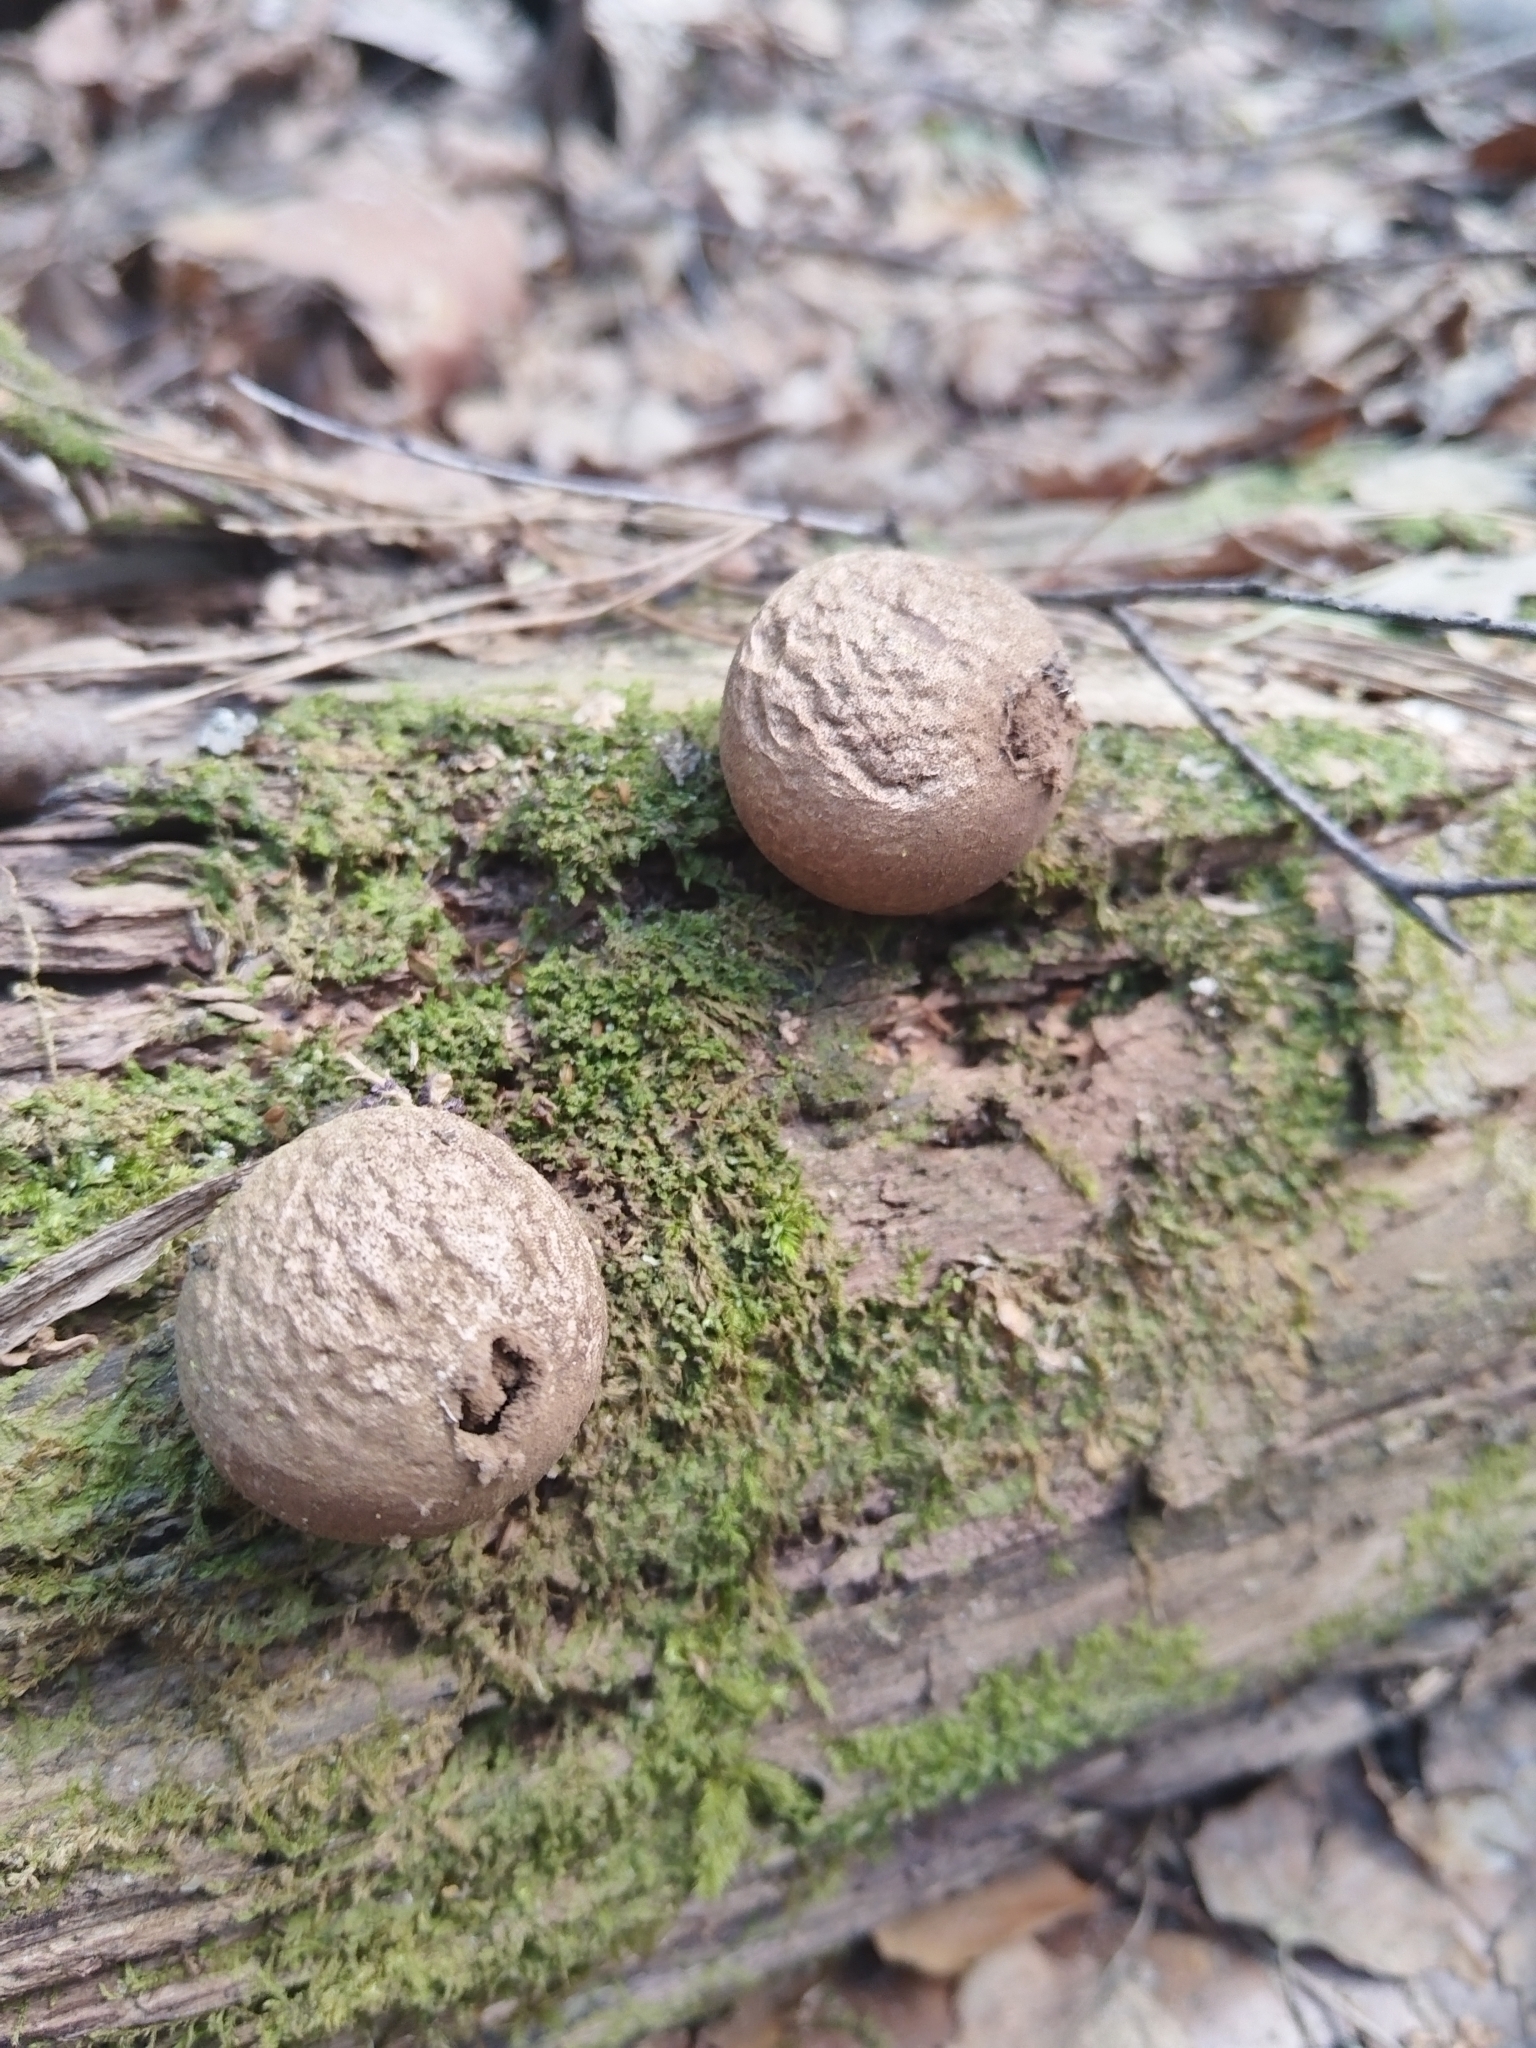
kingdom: Fungi
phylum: Basidiomycota
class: Agaricomycetes
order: Agaricales
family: Lycoperdaceae
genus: Apioperdon
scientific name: Apioperdon pyriforme
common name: Pear-shaped puffball
